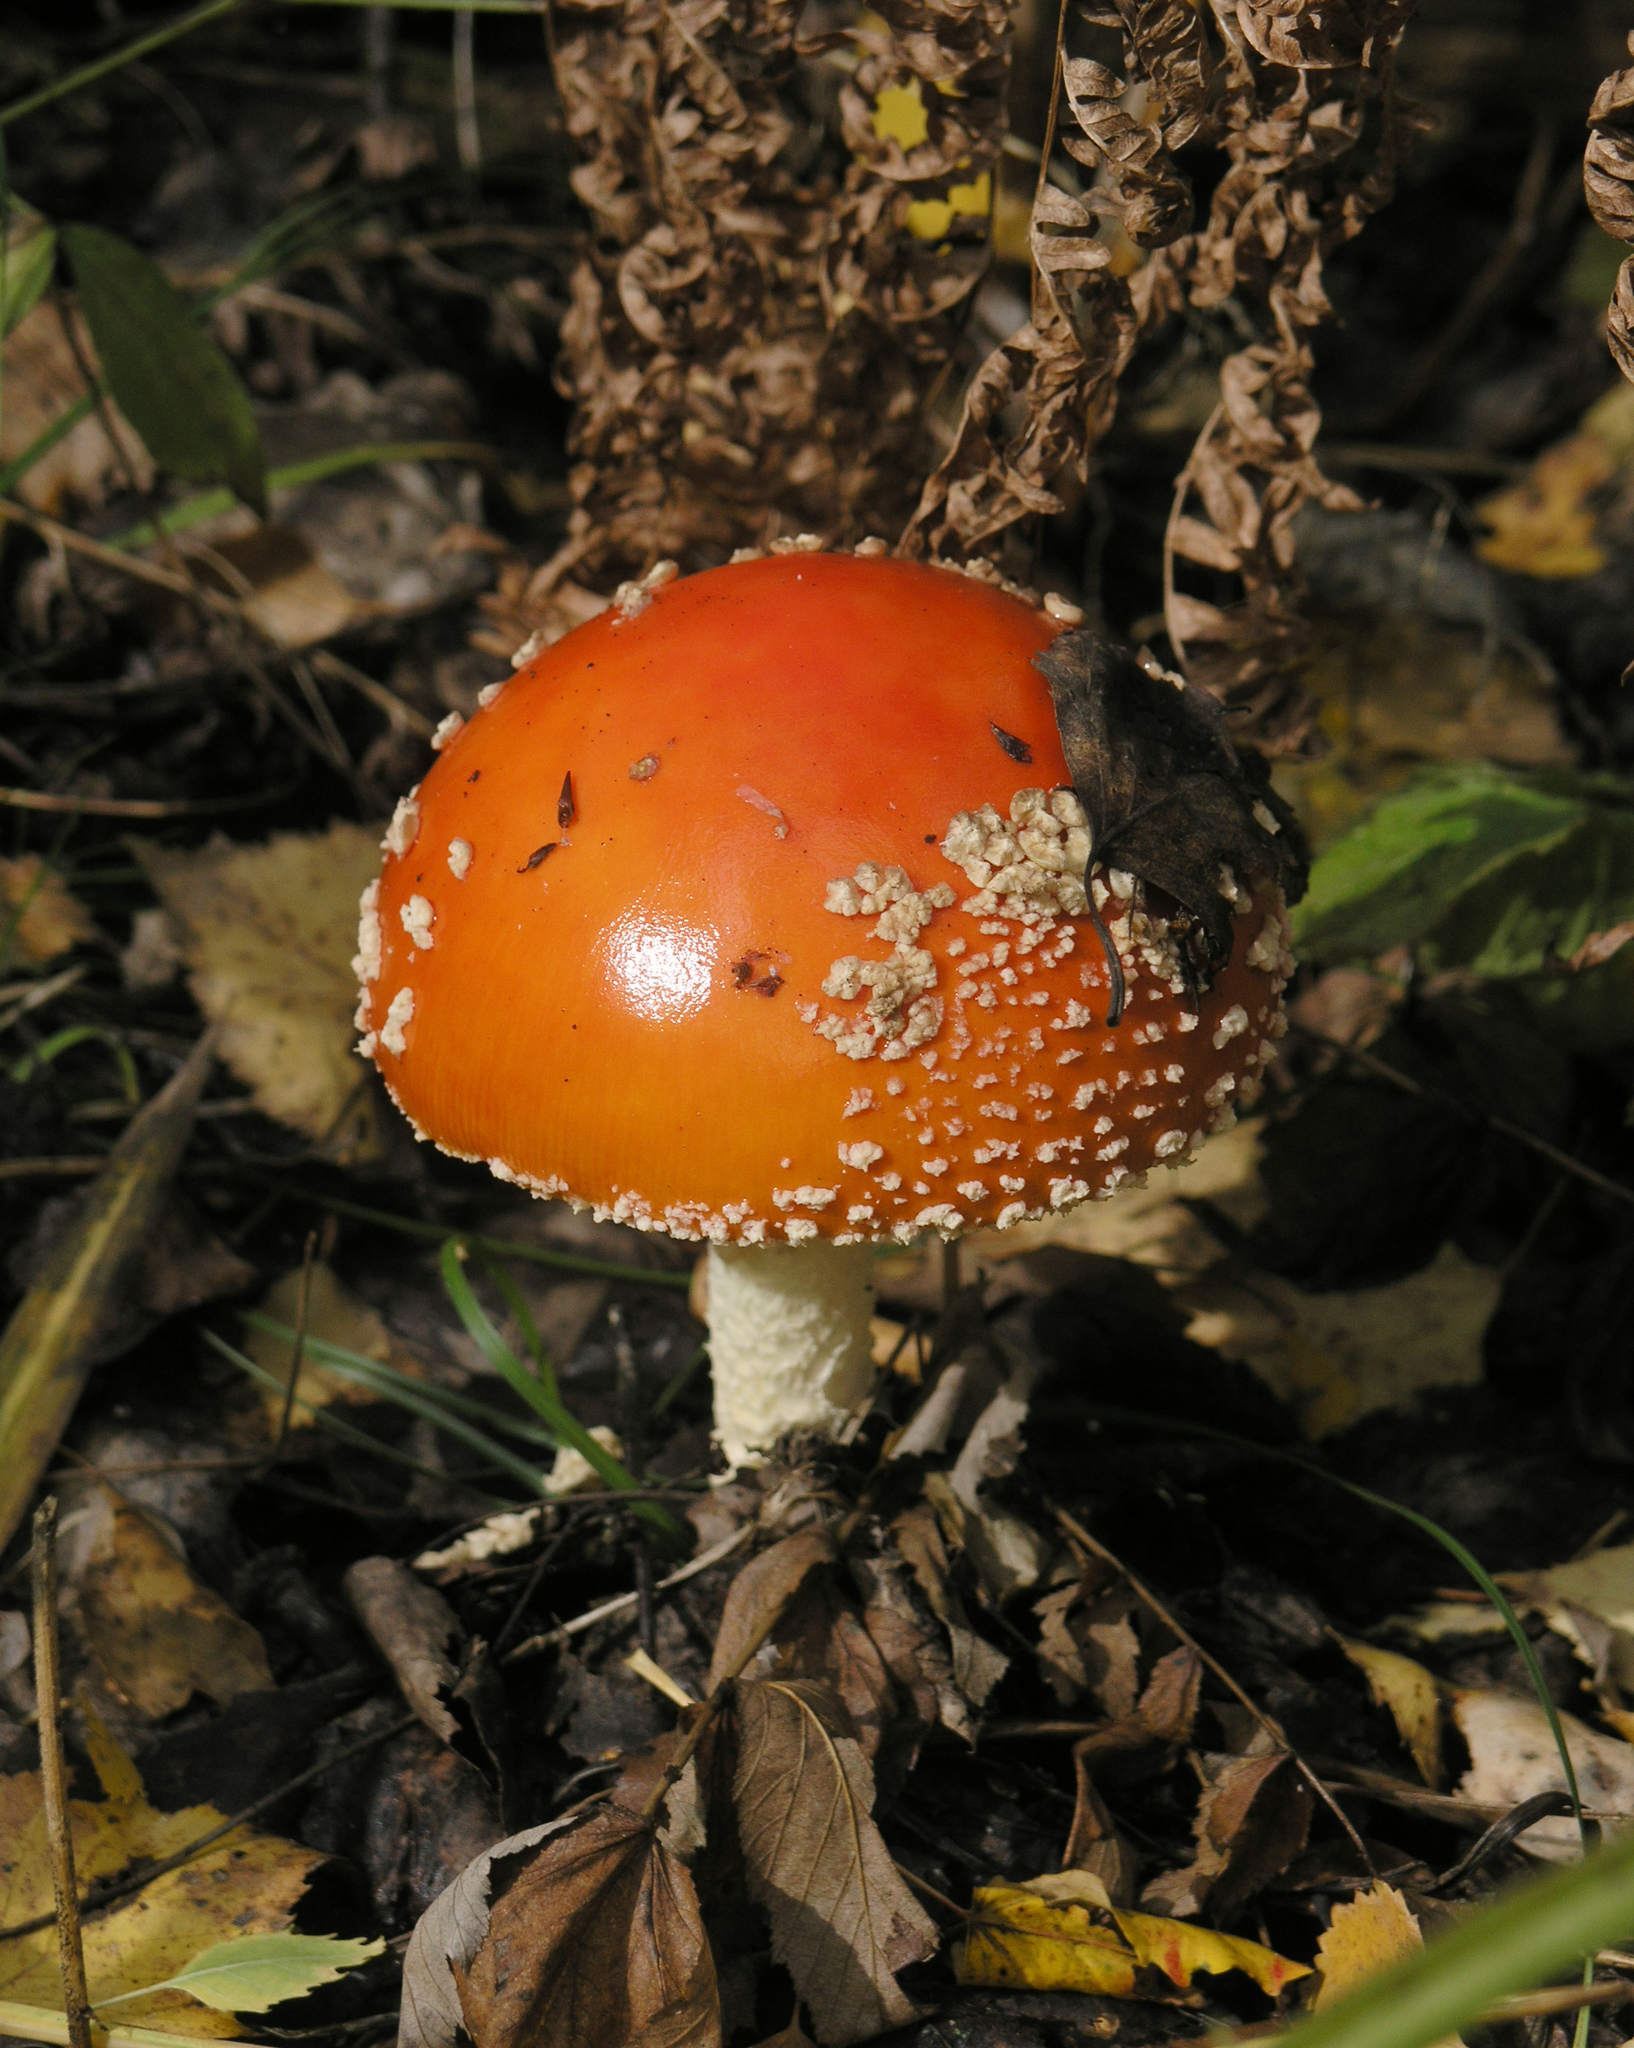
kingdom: Fungi
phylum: Basidiomycota
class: Agaricomycetes
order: Agaricales
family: Amanitaceae
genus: Amanita
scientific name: Amanita muscaria
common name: Fly agaric
